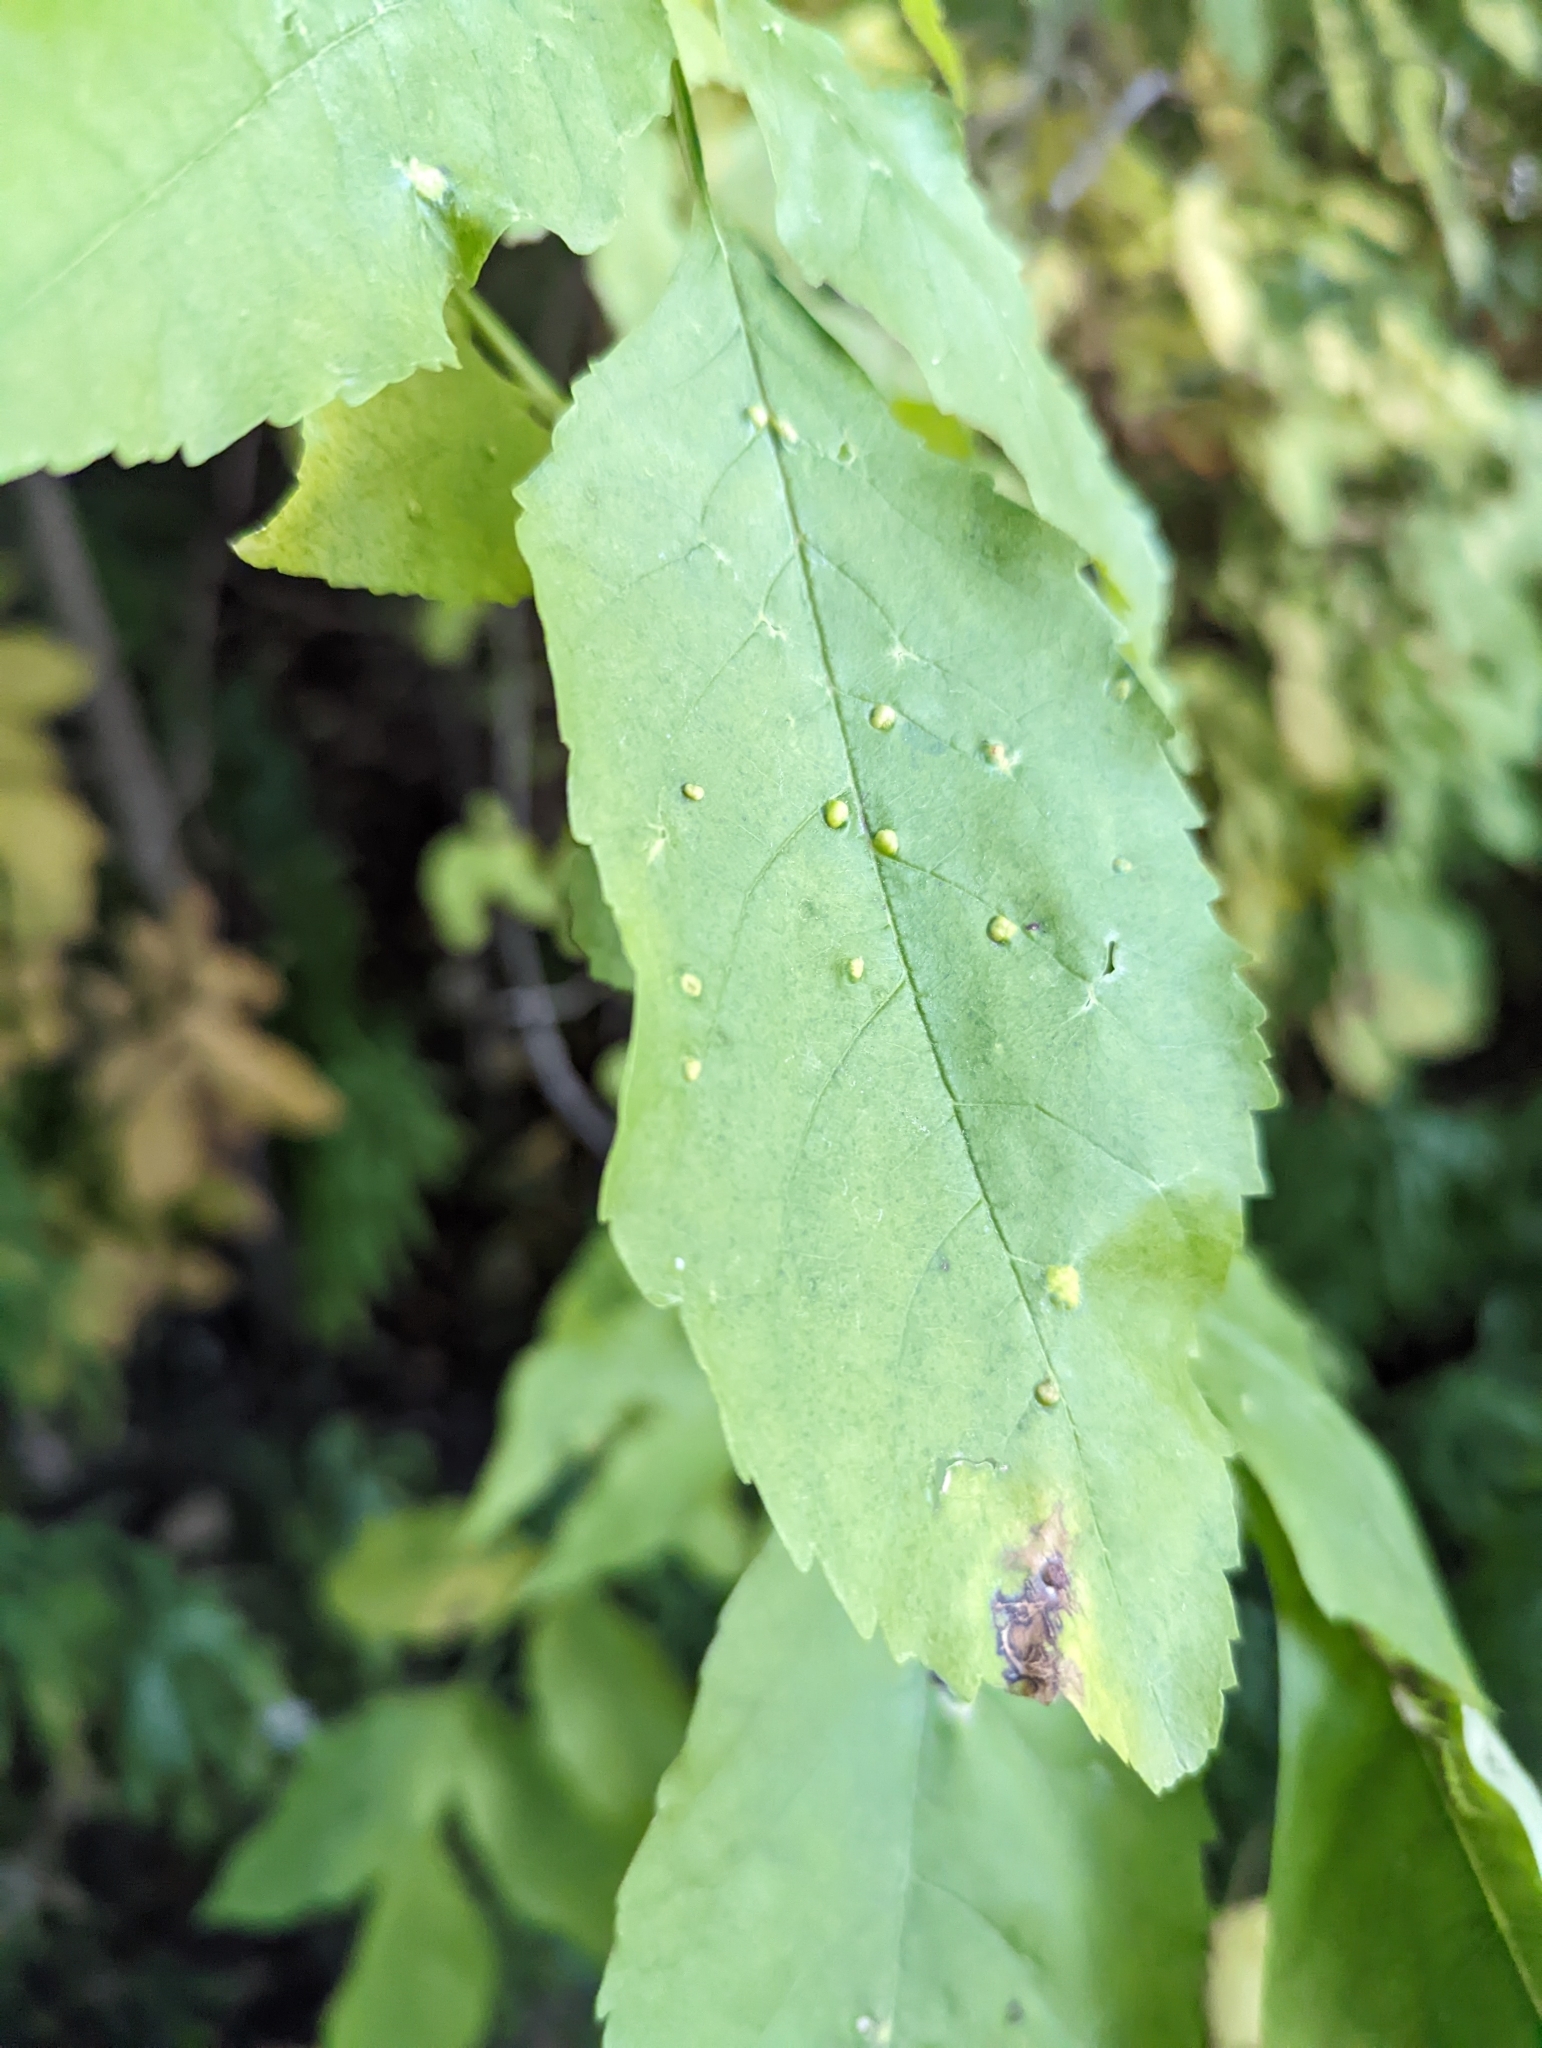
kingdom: Animalia
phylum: Arthropoda
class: Arachnida
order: Trombidiformes
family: Eriophyidae
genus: Aceria
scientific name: Aceria fraxinicola
